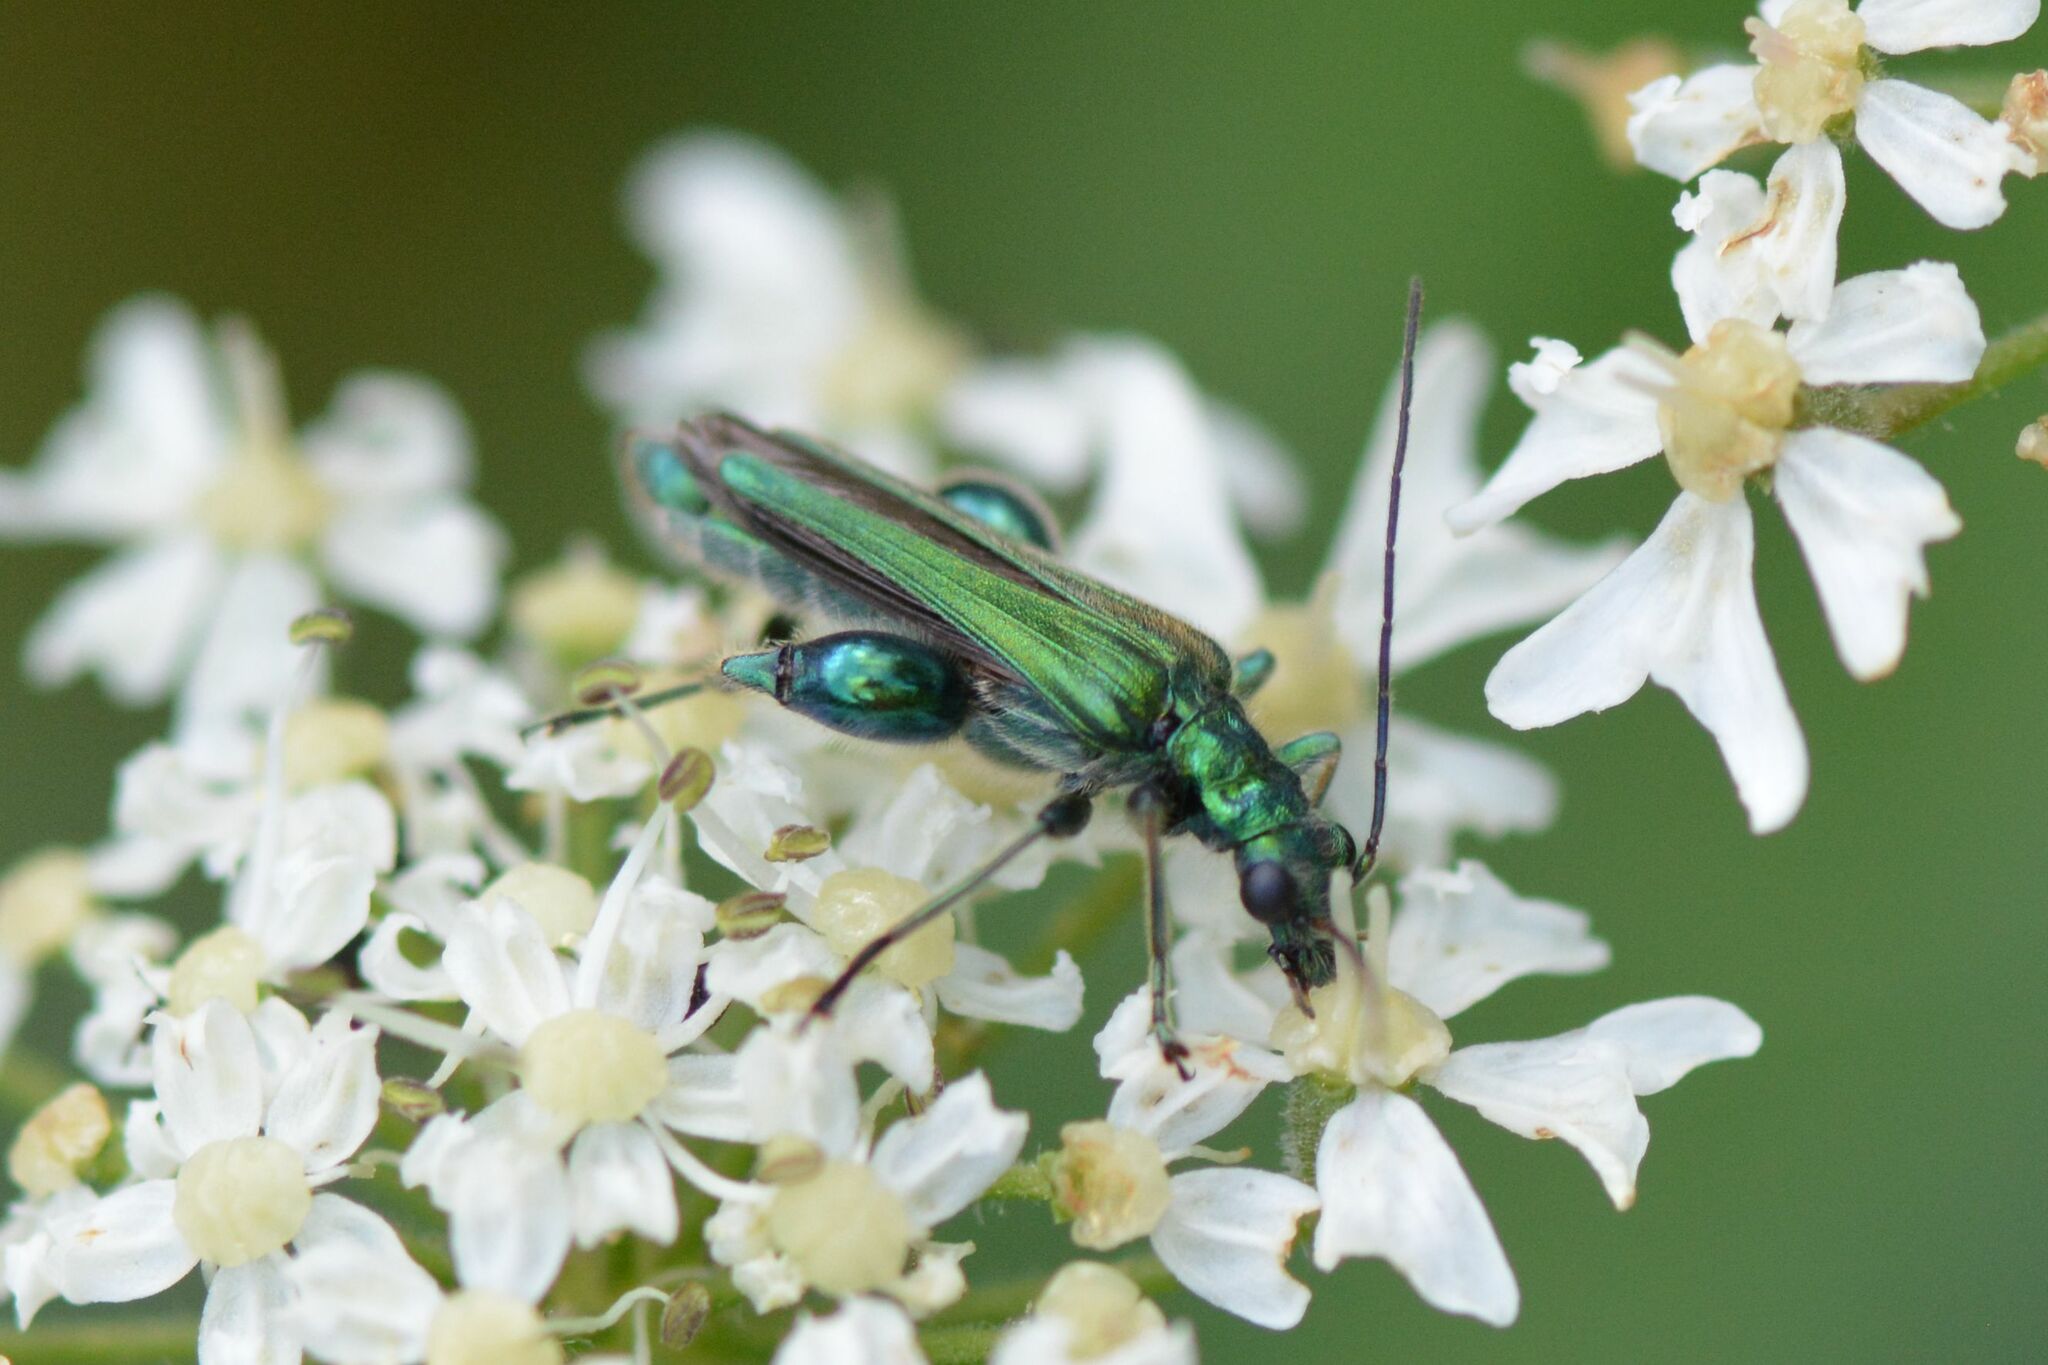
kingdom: Animalia
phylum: Arthropoda
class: Insecta
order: Coleoptera
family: Oedemeridae
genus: Oedemera
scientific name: Oedemera nobilis
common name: Swollen-thighed beetle
